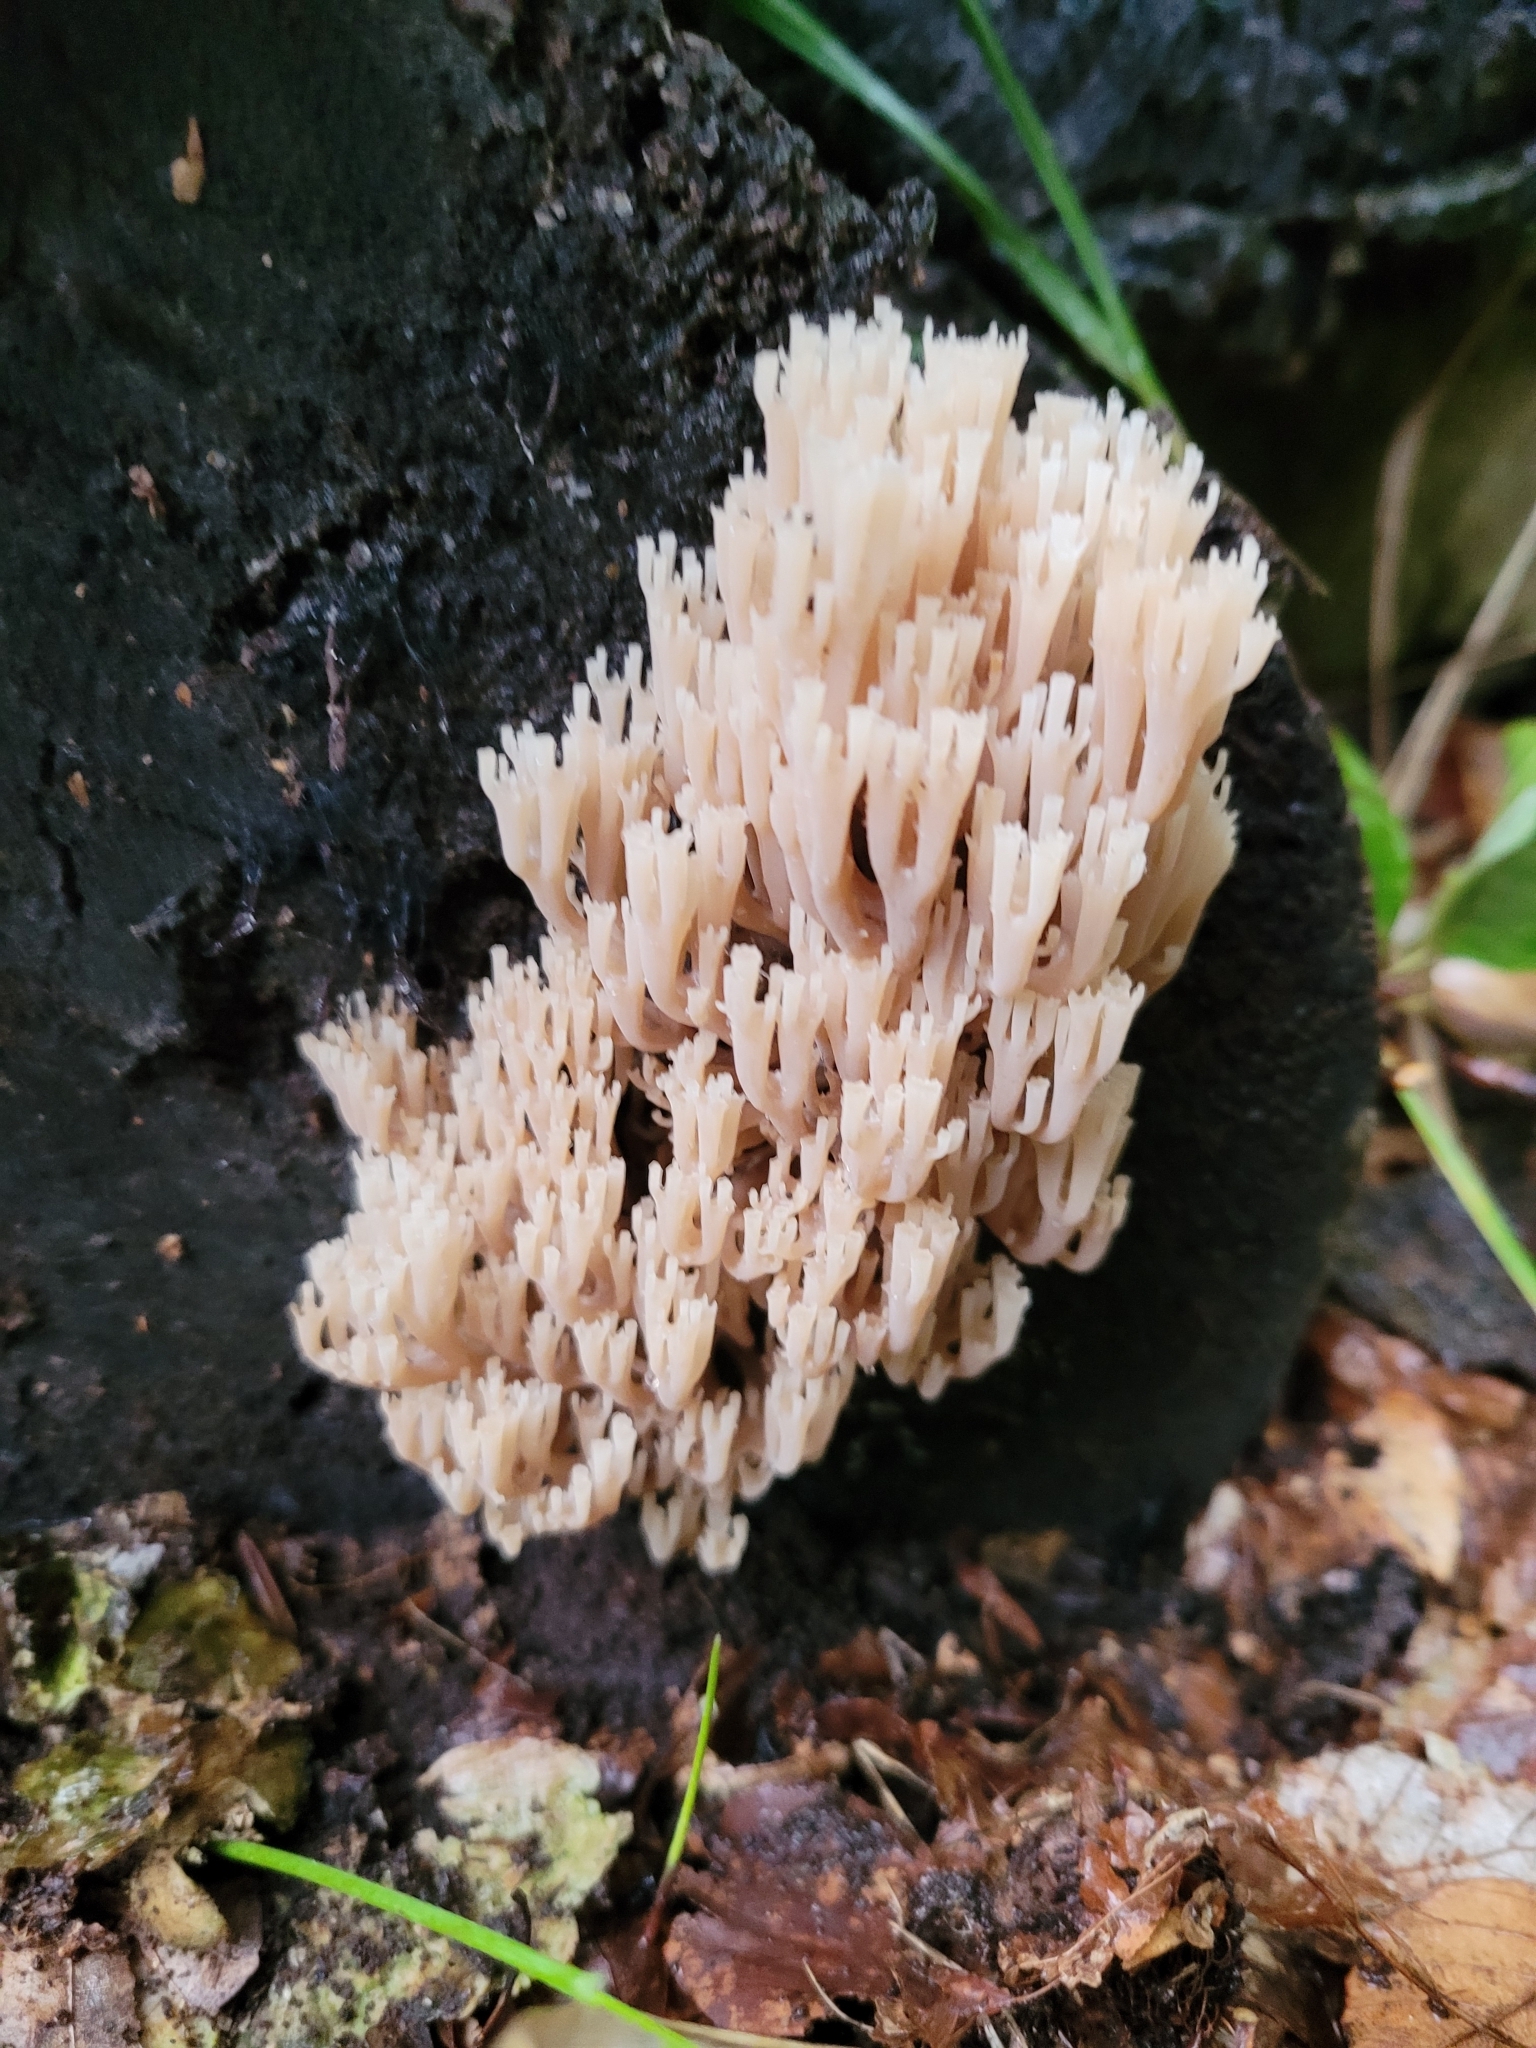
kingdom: Fungi
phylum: Basidiomycota
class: Agaricomycetes
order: Russulales
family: Auriscalpiaceae
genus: Artomyces
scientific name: Artomyces pyxidatus
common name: Crown-tipped coral fungus
